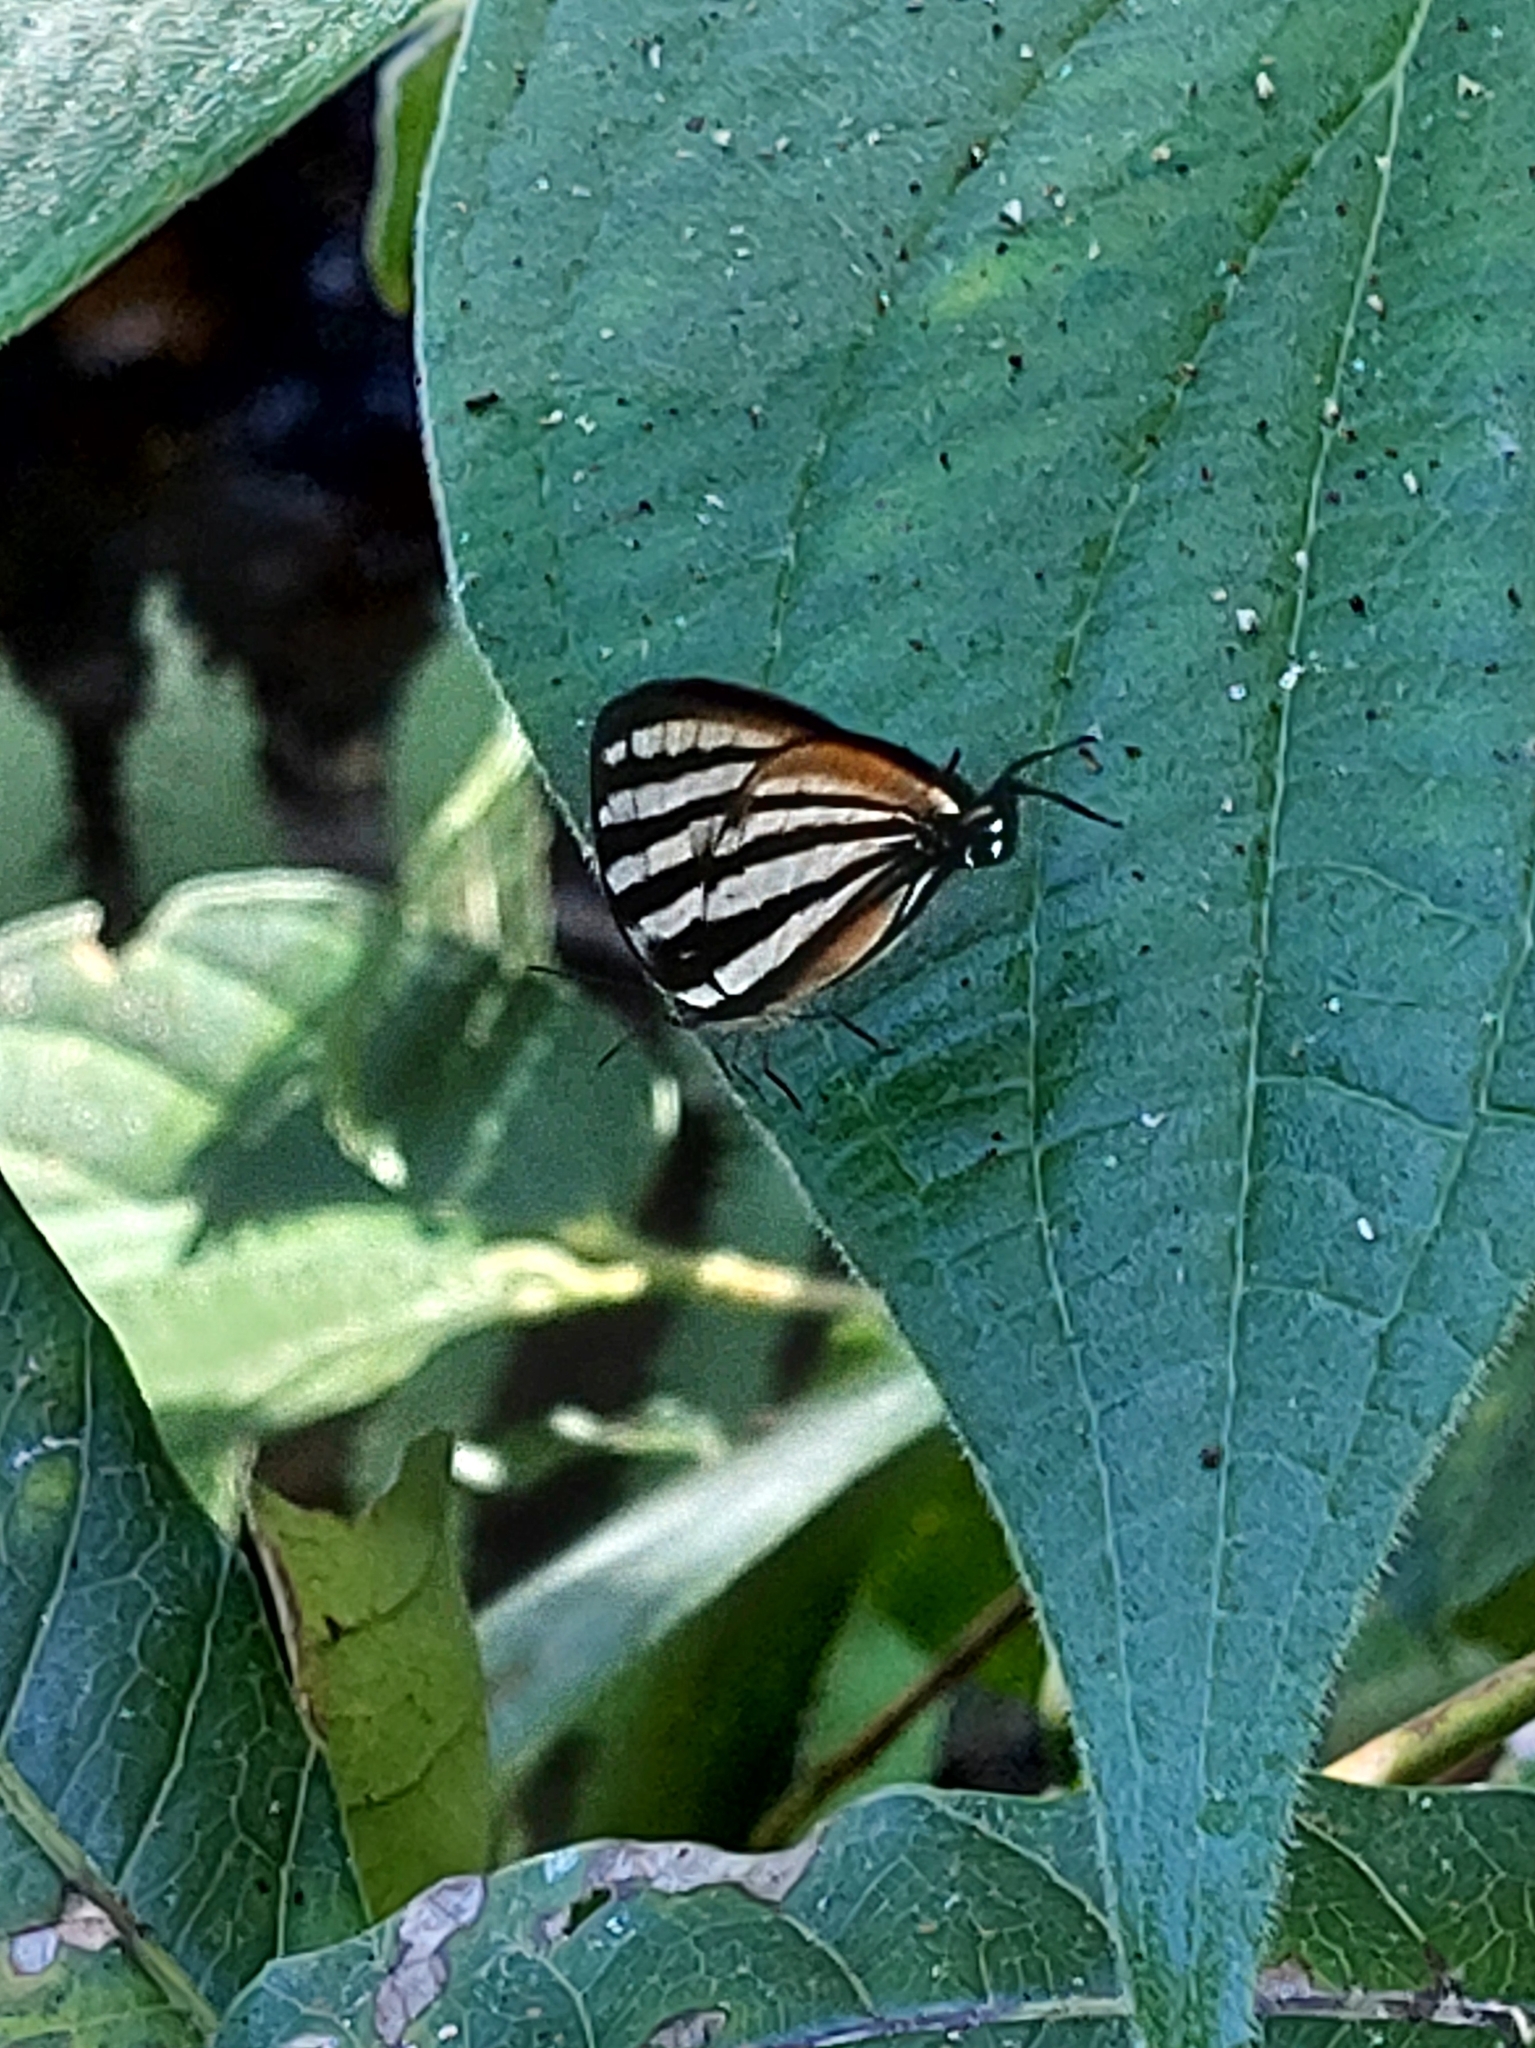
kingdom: Animalia
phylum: Arthropoda
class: Insecta
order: Lepidoptera
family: Lycaenidae
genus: Arawacus
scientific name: Arawacus lincoides
